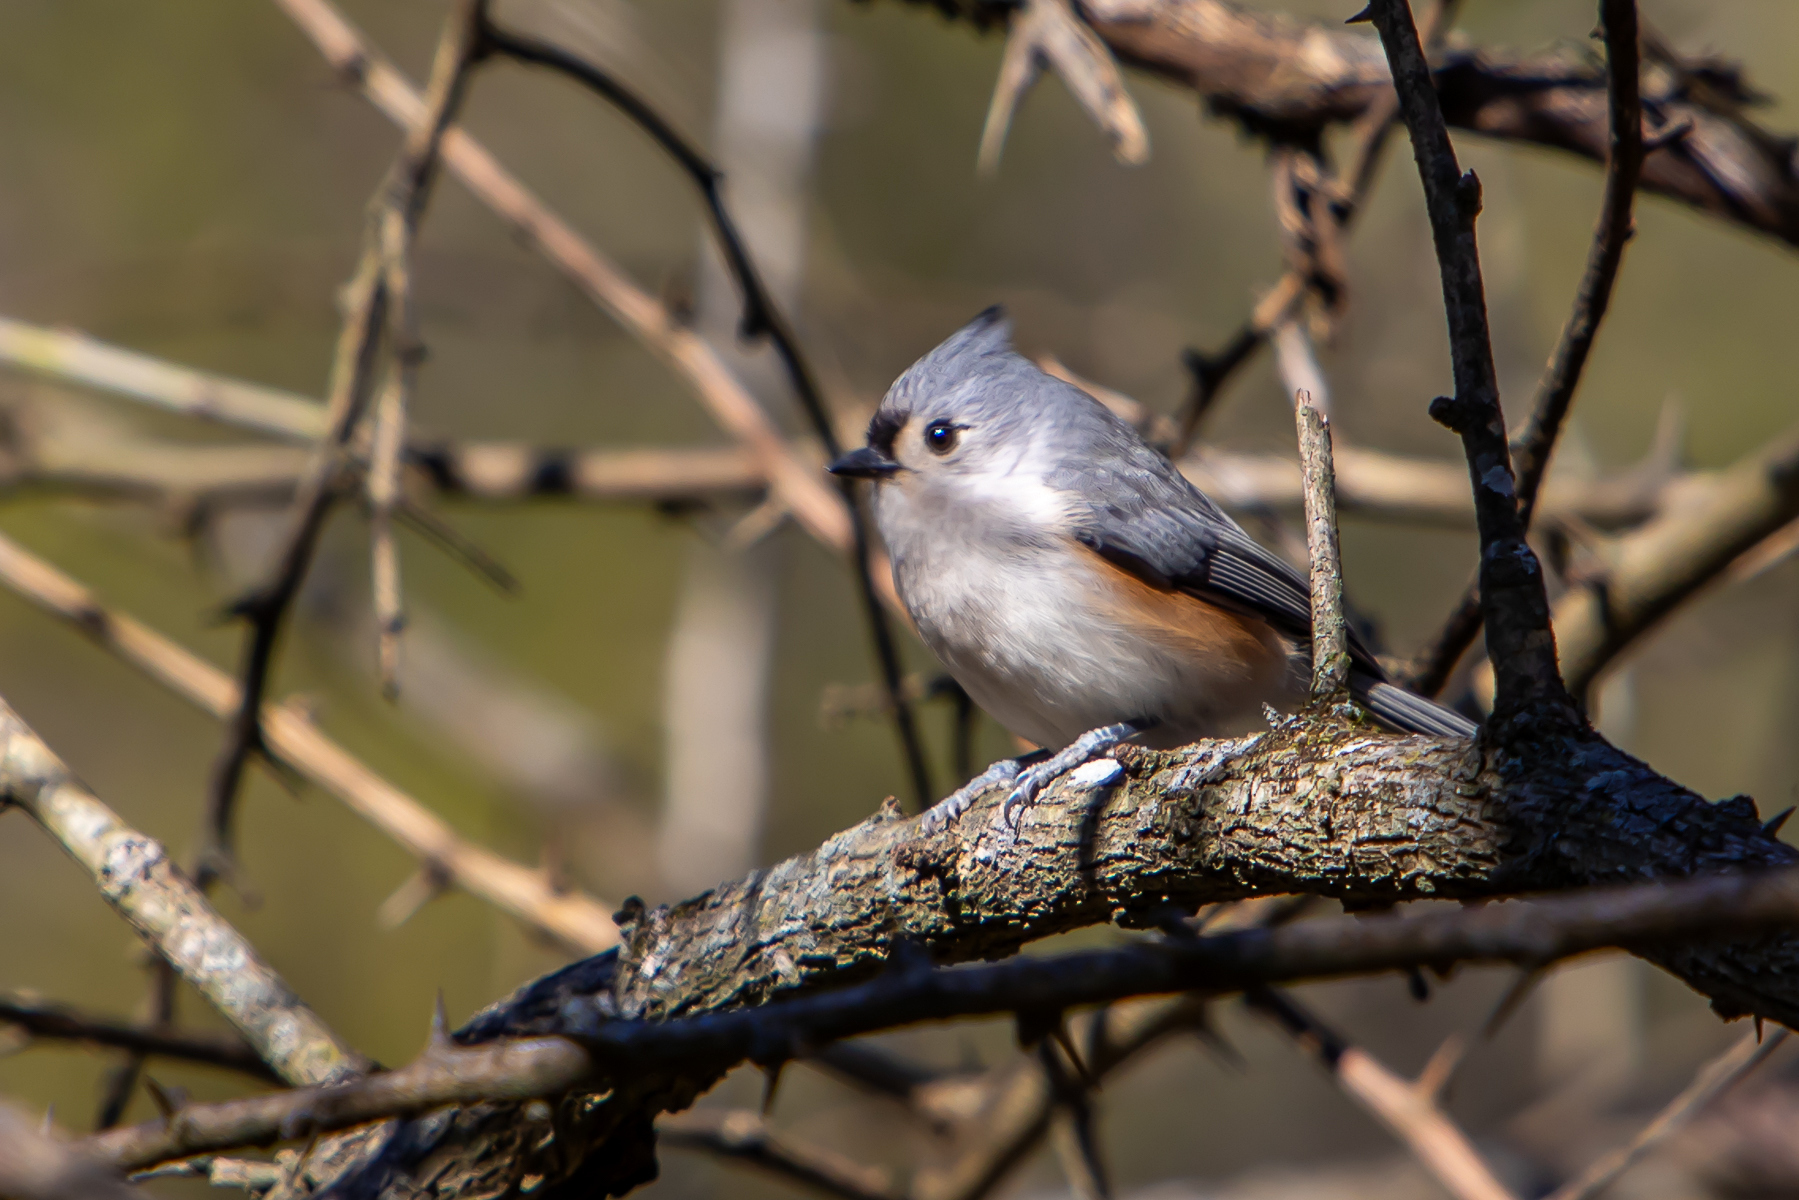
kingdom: Animalia
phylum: Chordata
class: Aves
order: Passeriformes
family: Paridae
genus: Baeolophus
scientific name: Baeolophus bicolor
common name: Tufted titmouse
